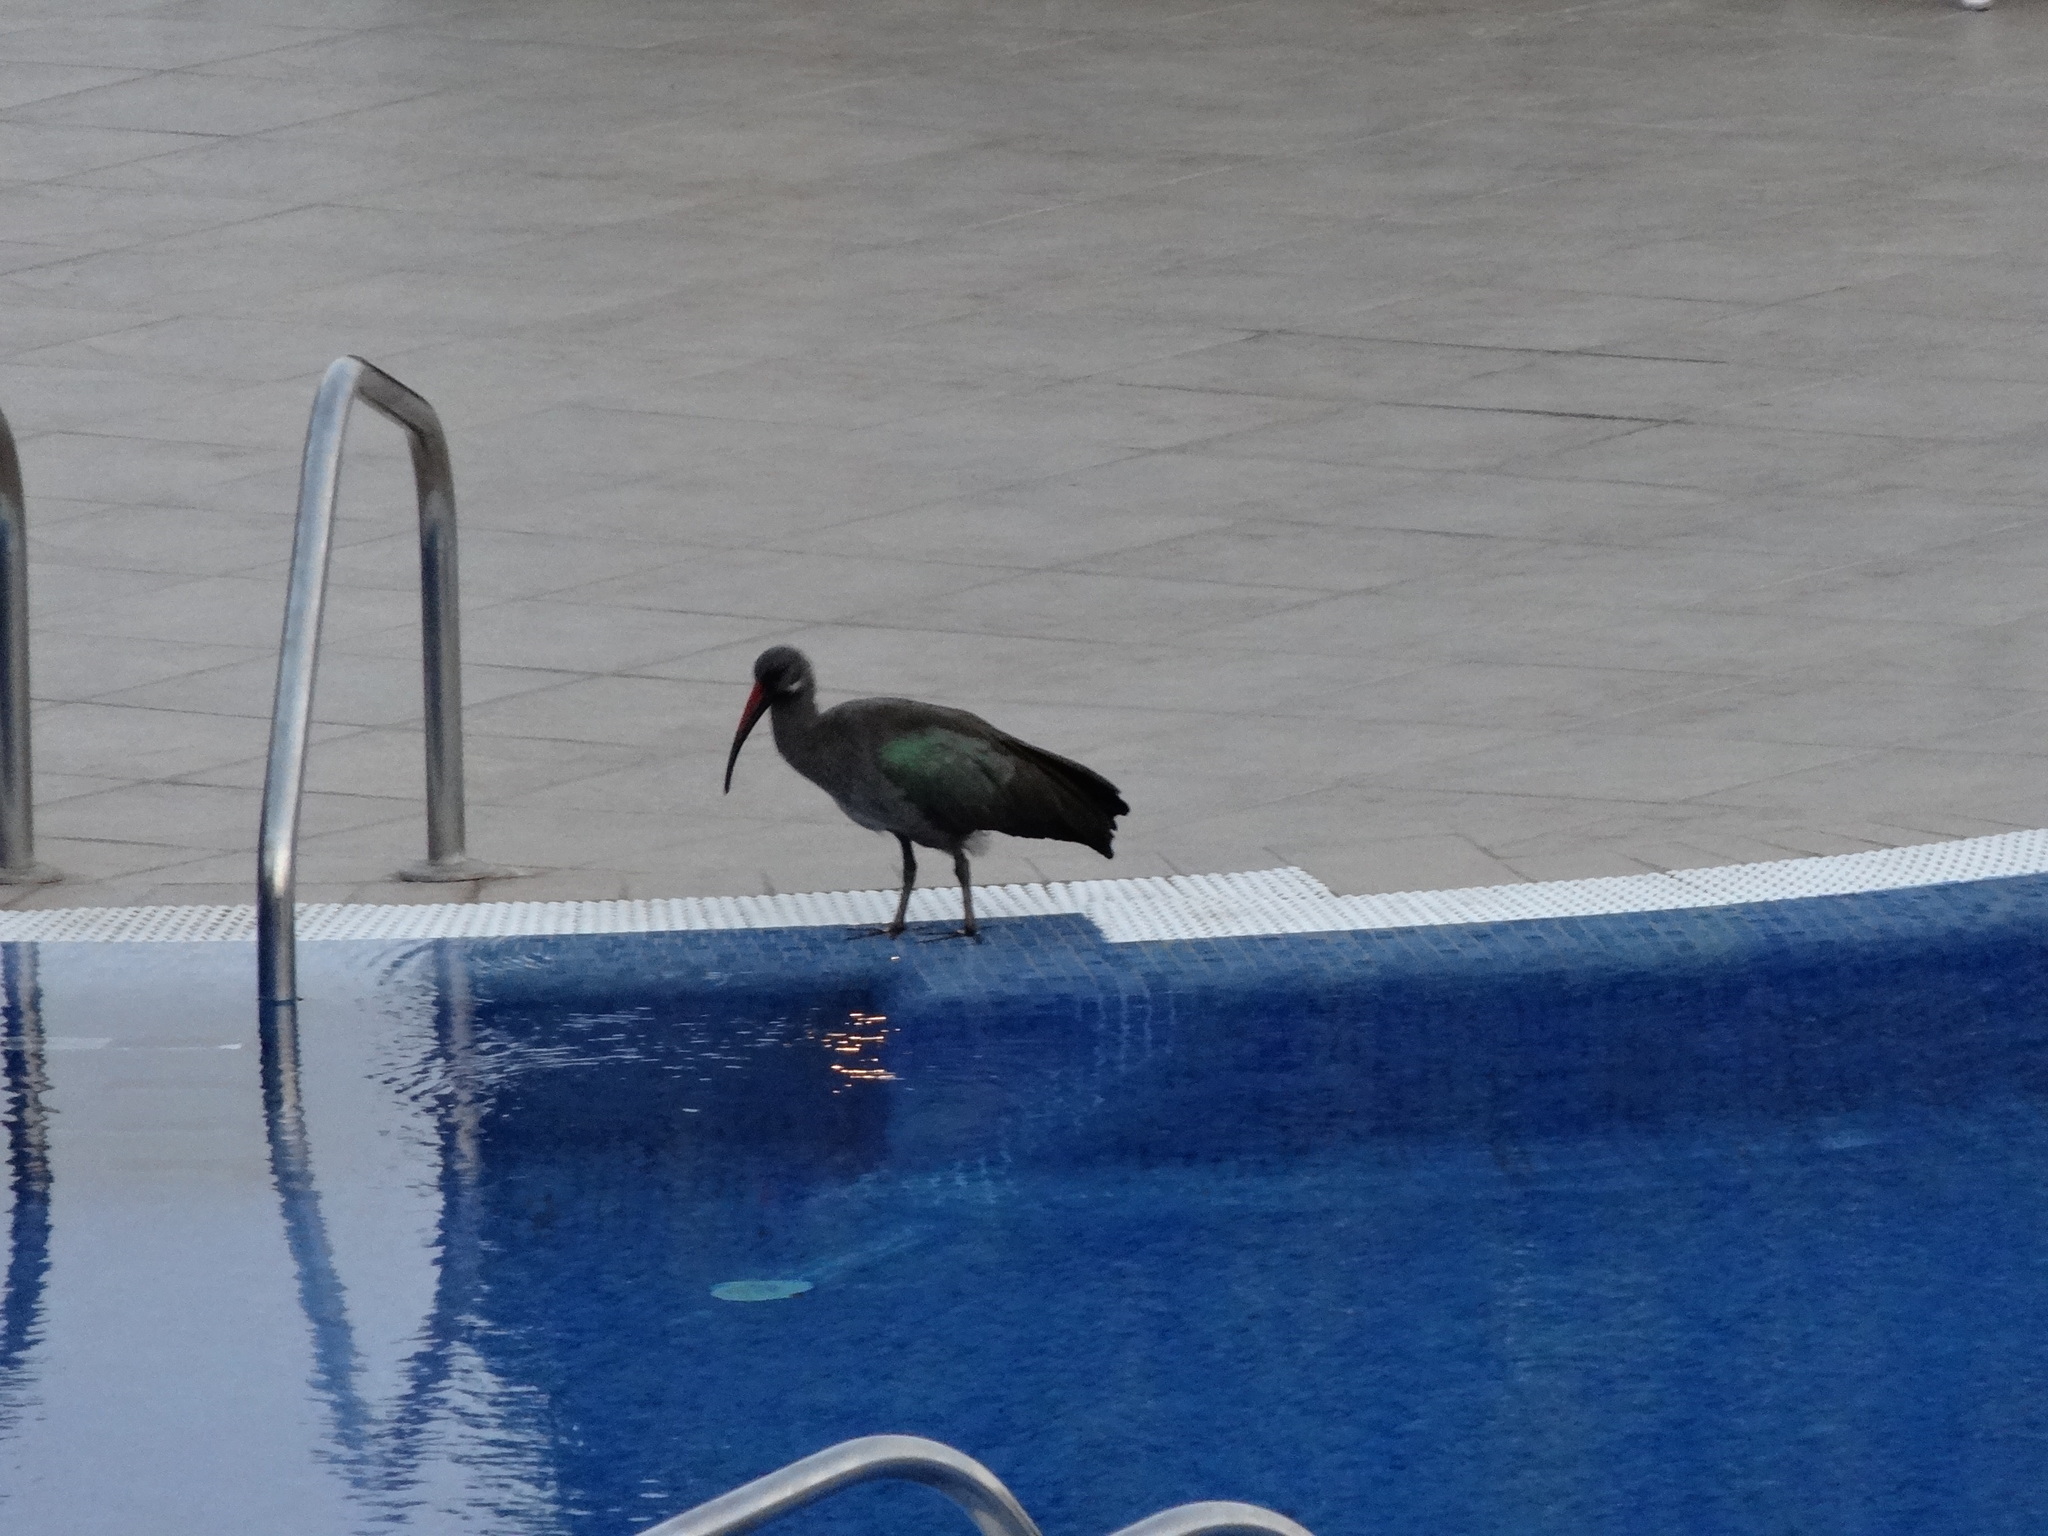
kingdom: Animalia
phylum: Chordata
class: Aves
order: Pelecaniformes
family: Threskiornithidae
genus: Bostrychia
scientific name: Bostrychia hagedash
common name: Hadada ibis
